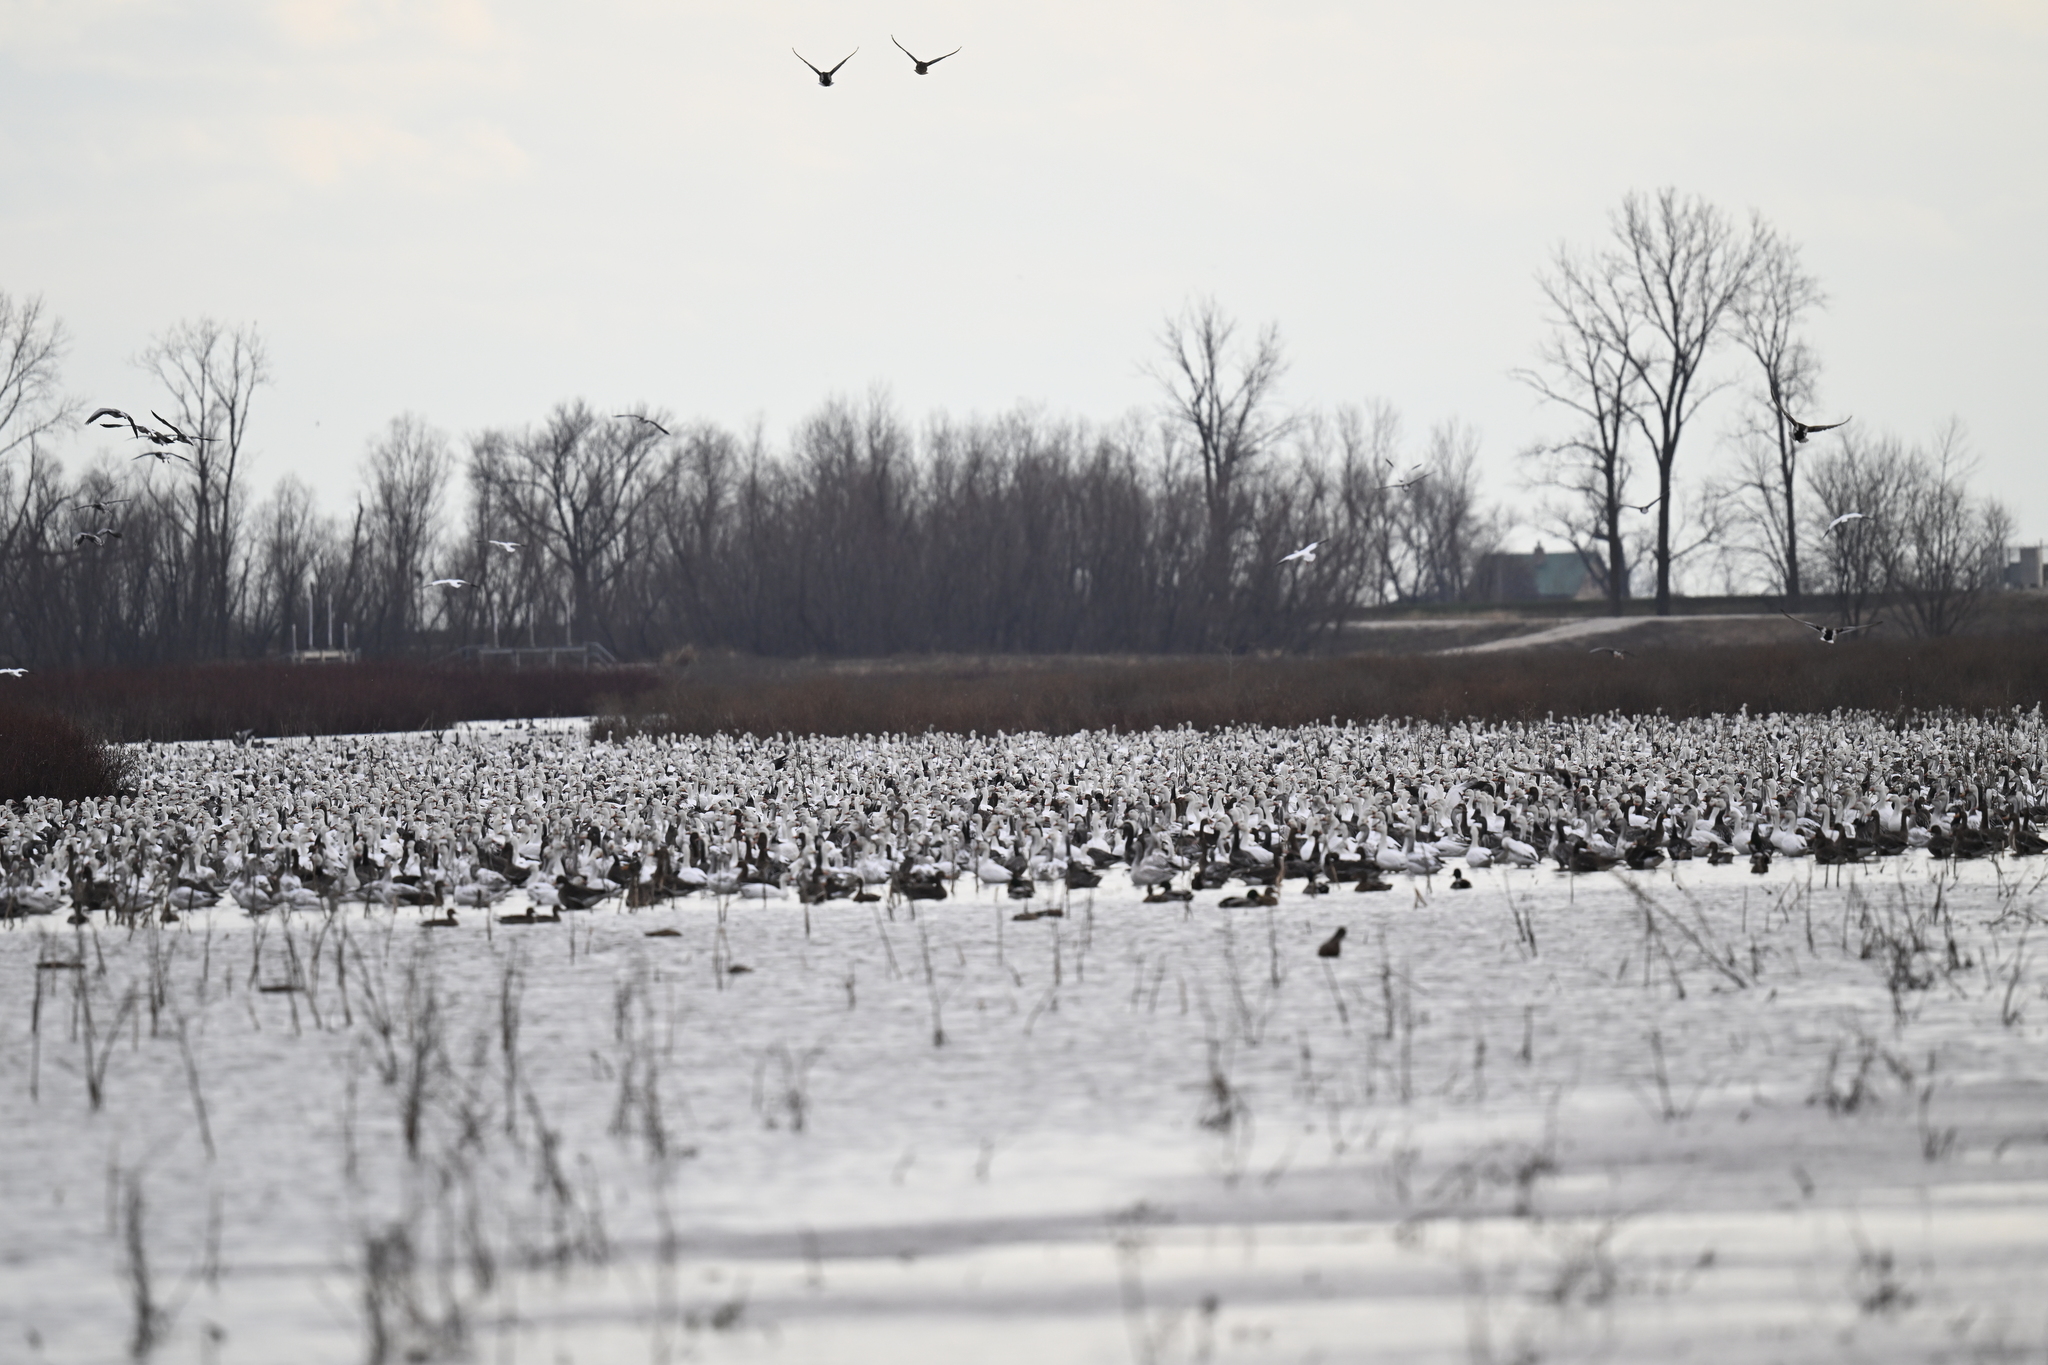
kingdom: Animalia
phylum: Chordata
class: Aves
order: Anseriformes
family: Anatidae
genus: Anser
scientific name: Anser caerulescens
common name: Snow goose
